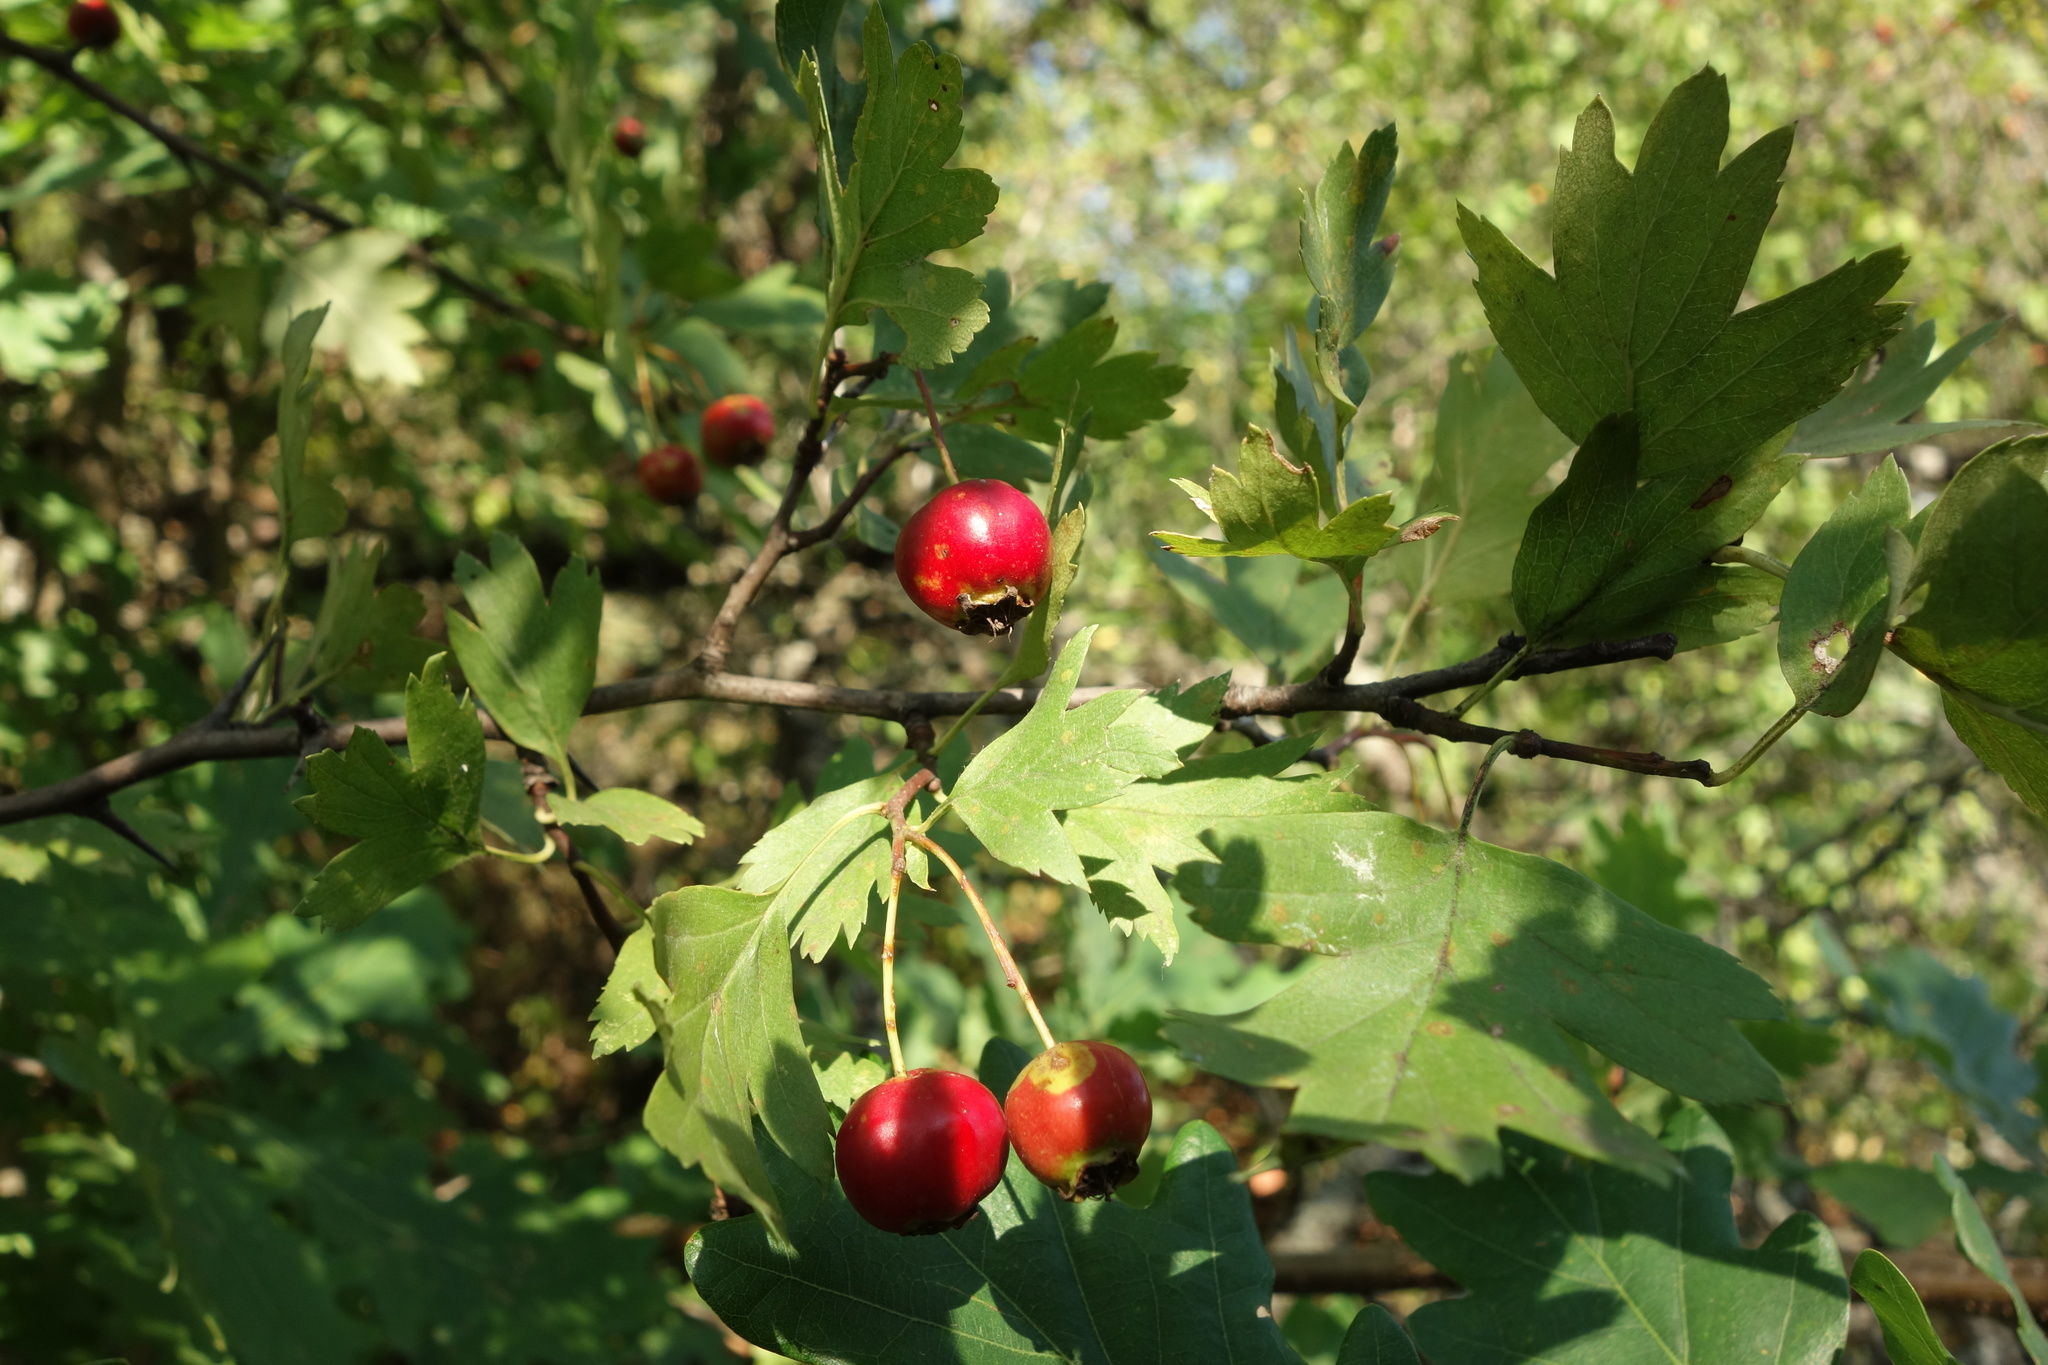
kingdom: Plantae
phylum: Tracheophyta
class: Magnoliopsida
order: Rosales
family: Rosaceae
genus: Crataegus
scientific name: Crataegus monogyna
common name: Hawthorn
